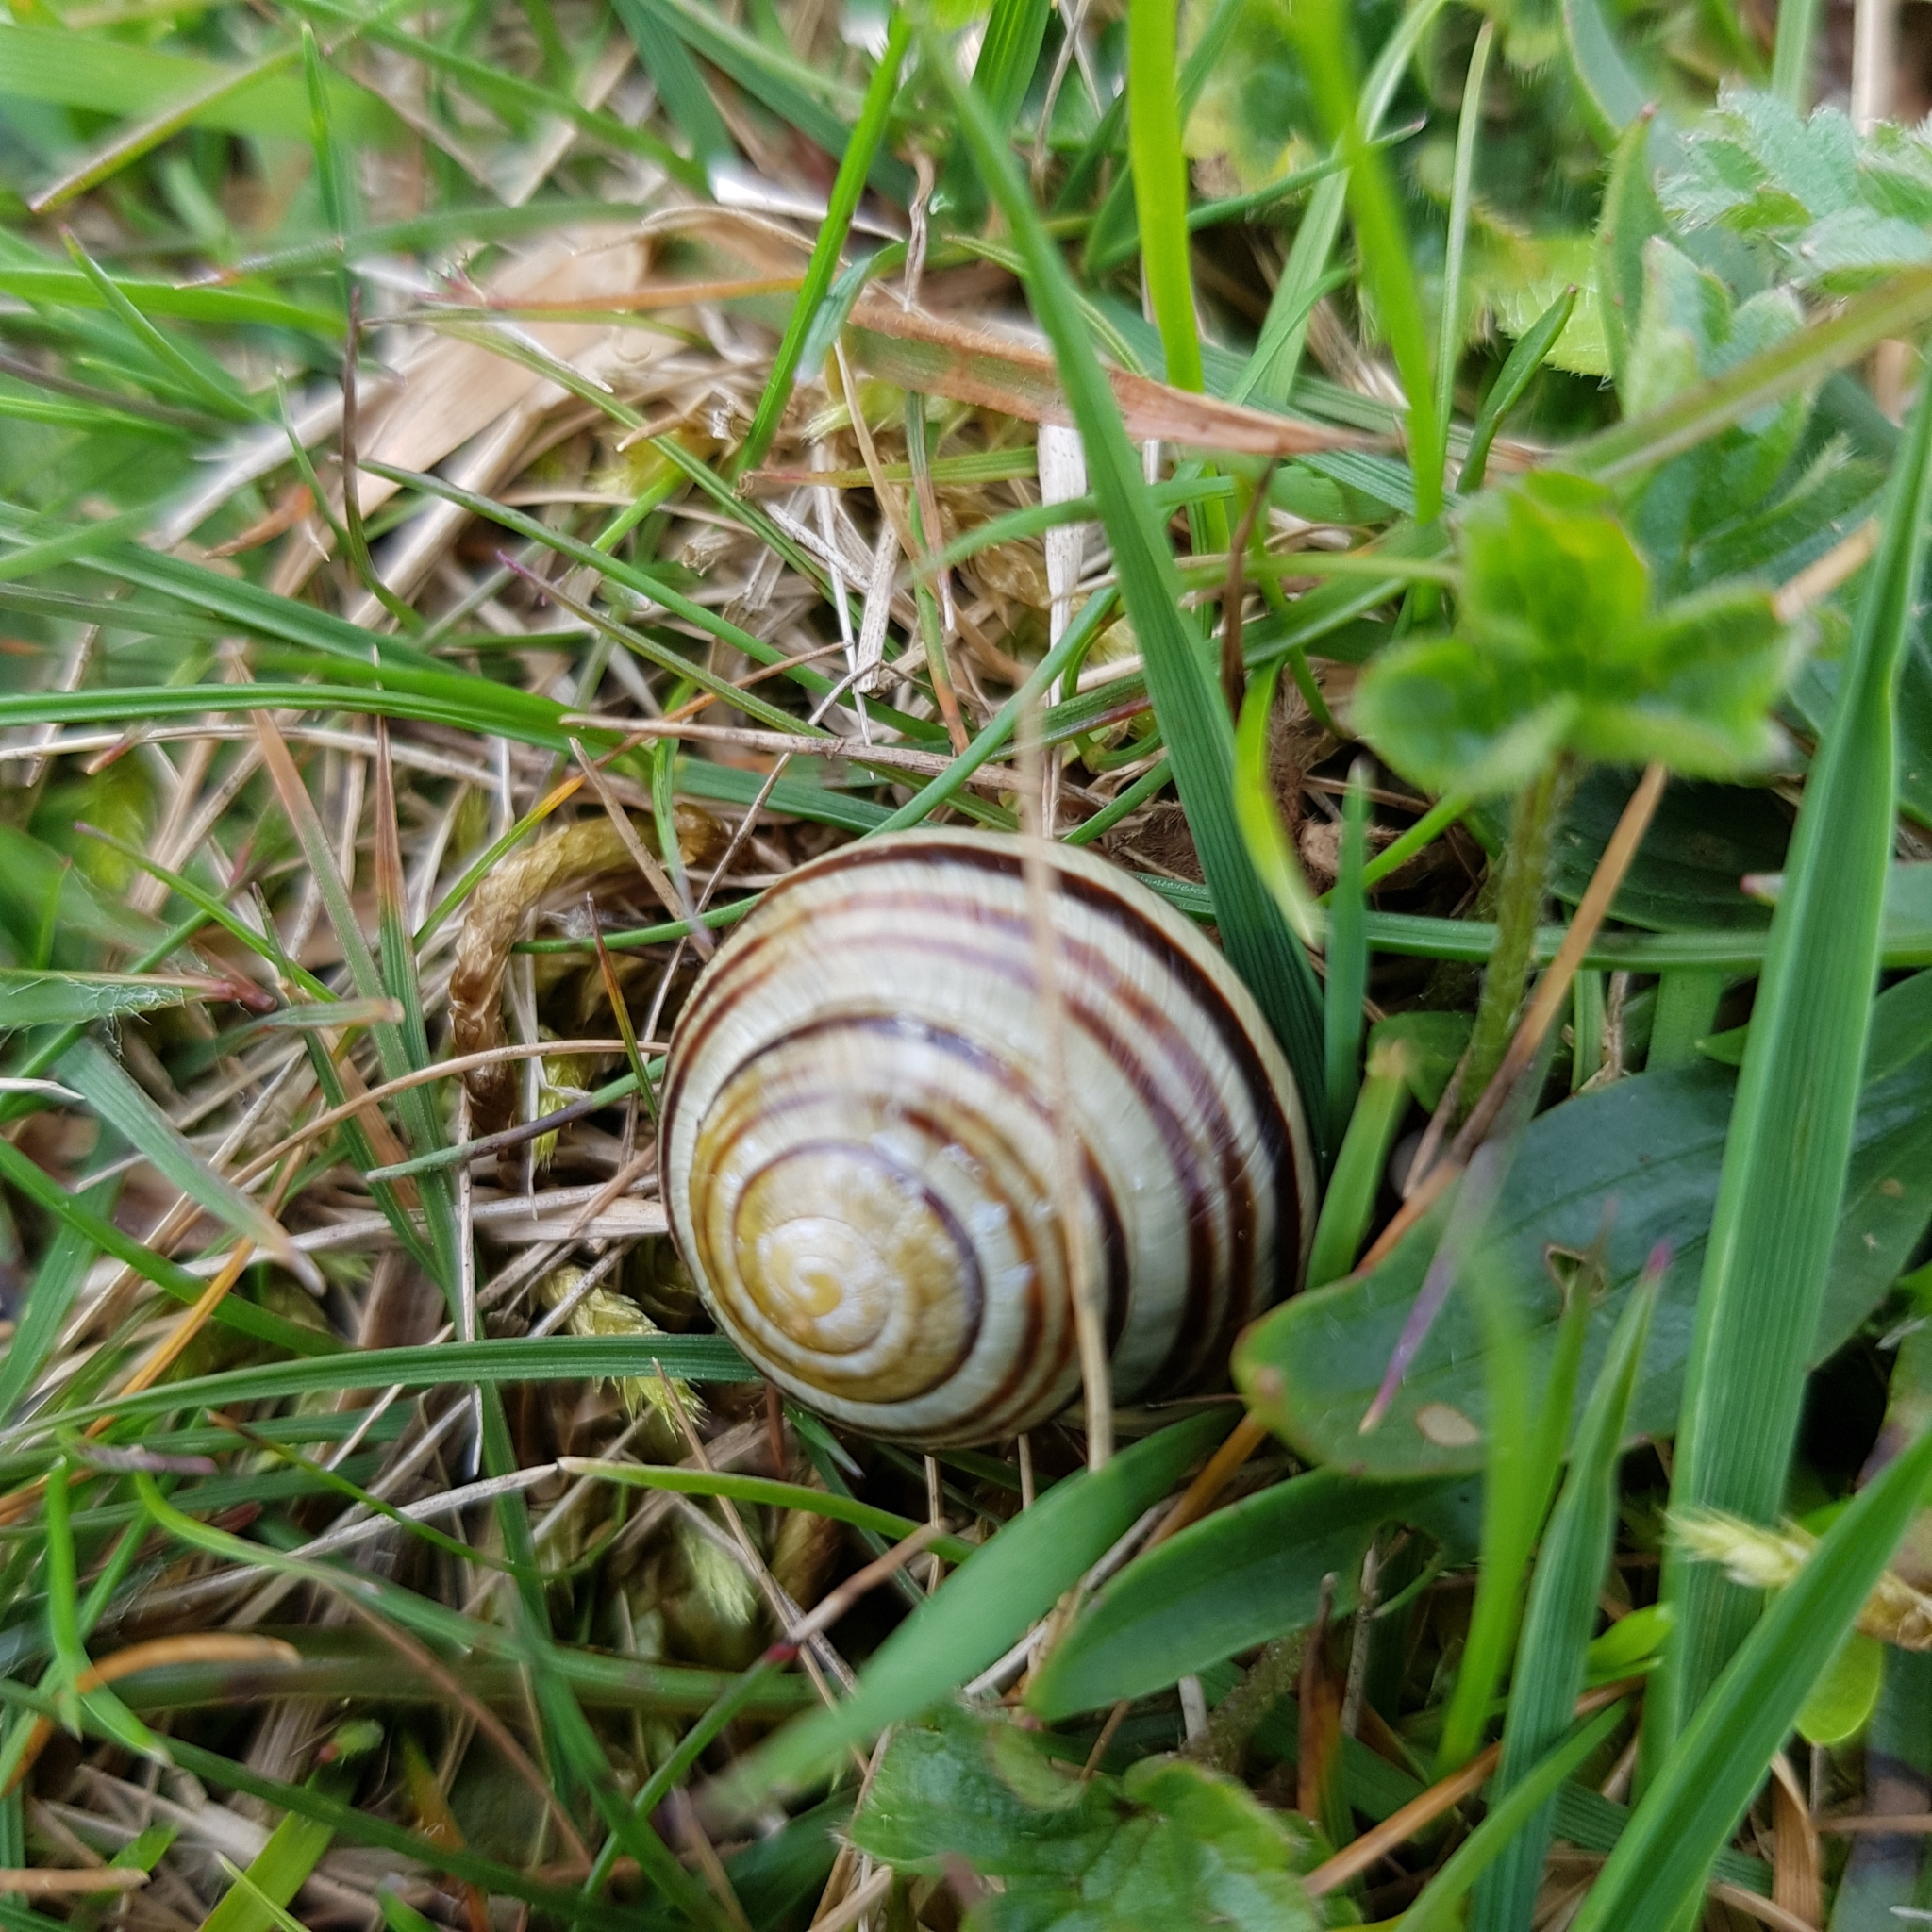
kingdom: Animalia
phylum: Mollusca
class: Gastropoda
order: Stylommatophora
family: Helicidae
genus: Cepaea
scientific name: Cepaea hortensis
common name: White-lip gardensnail
